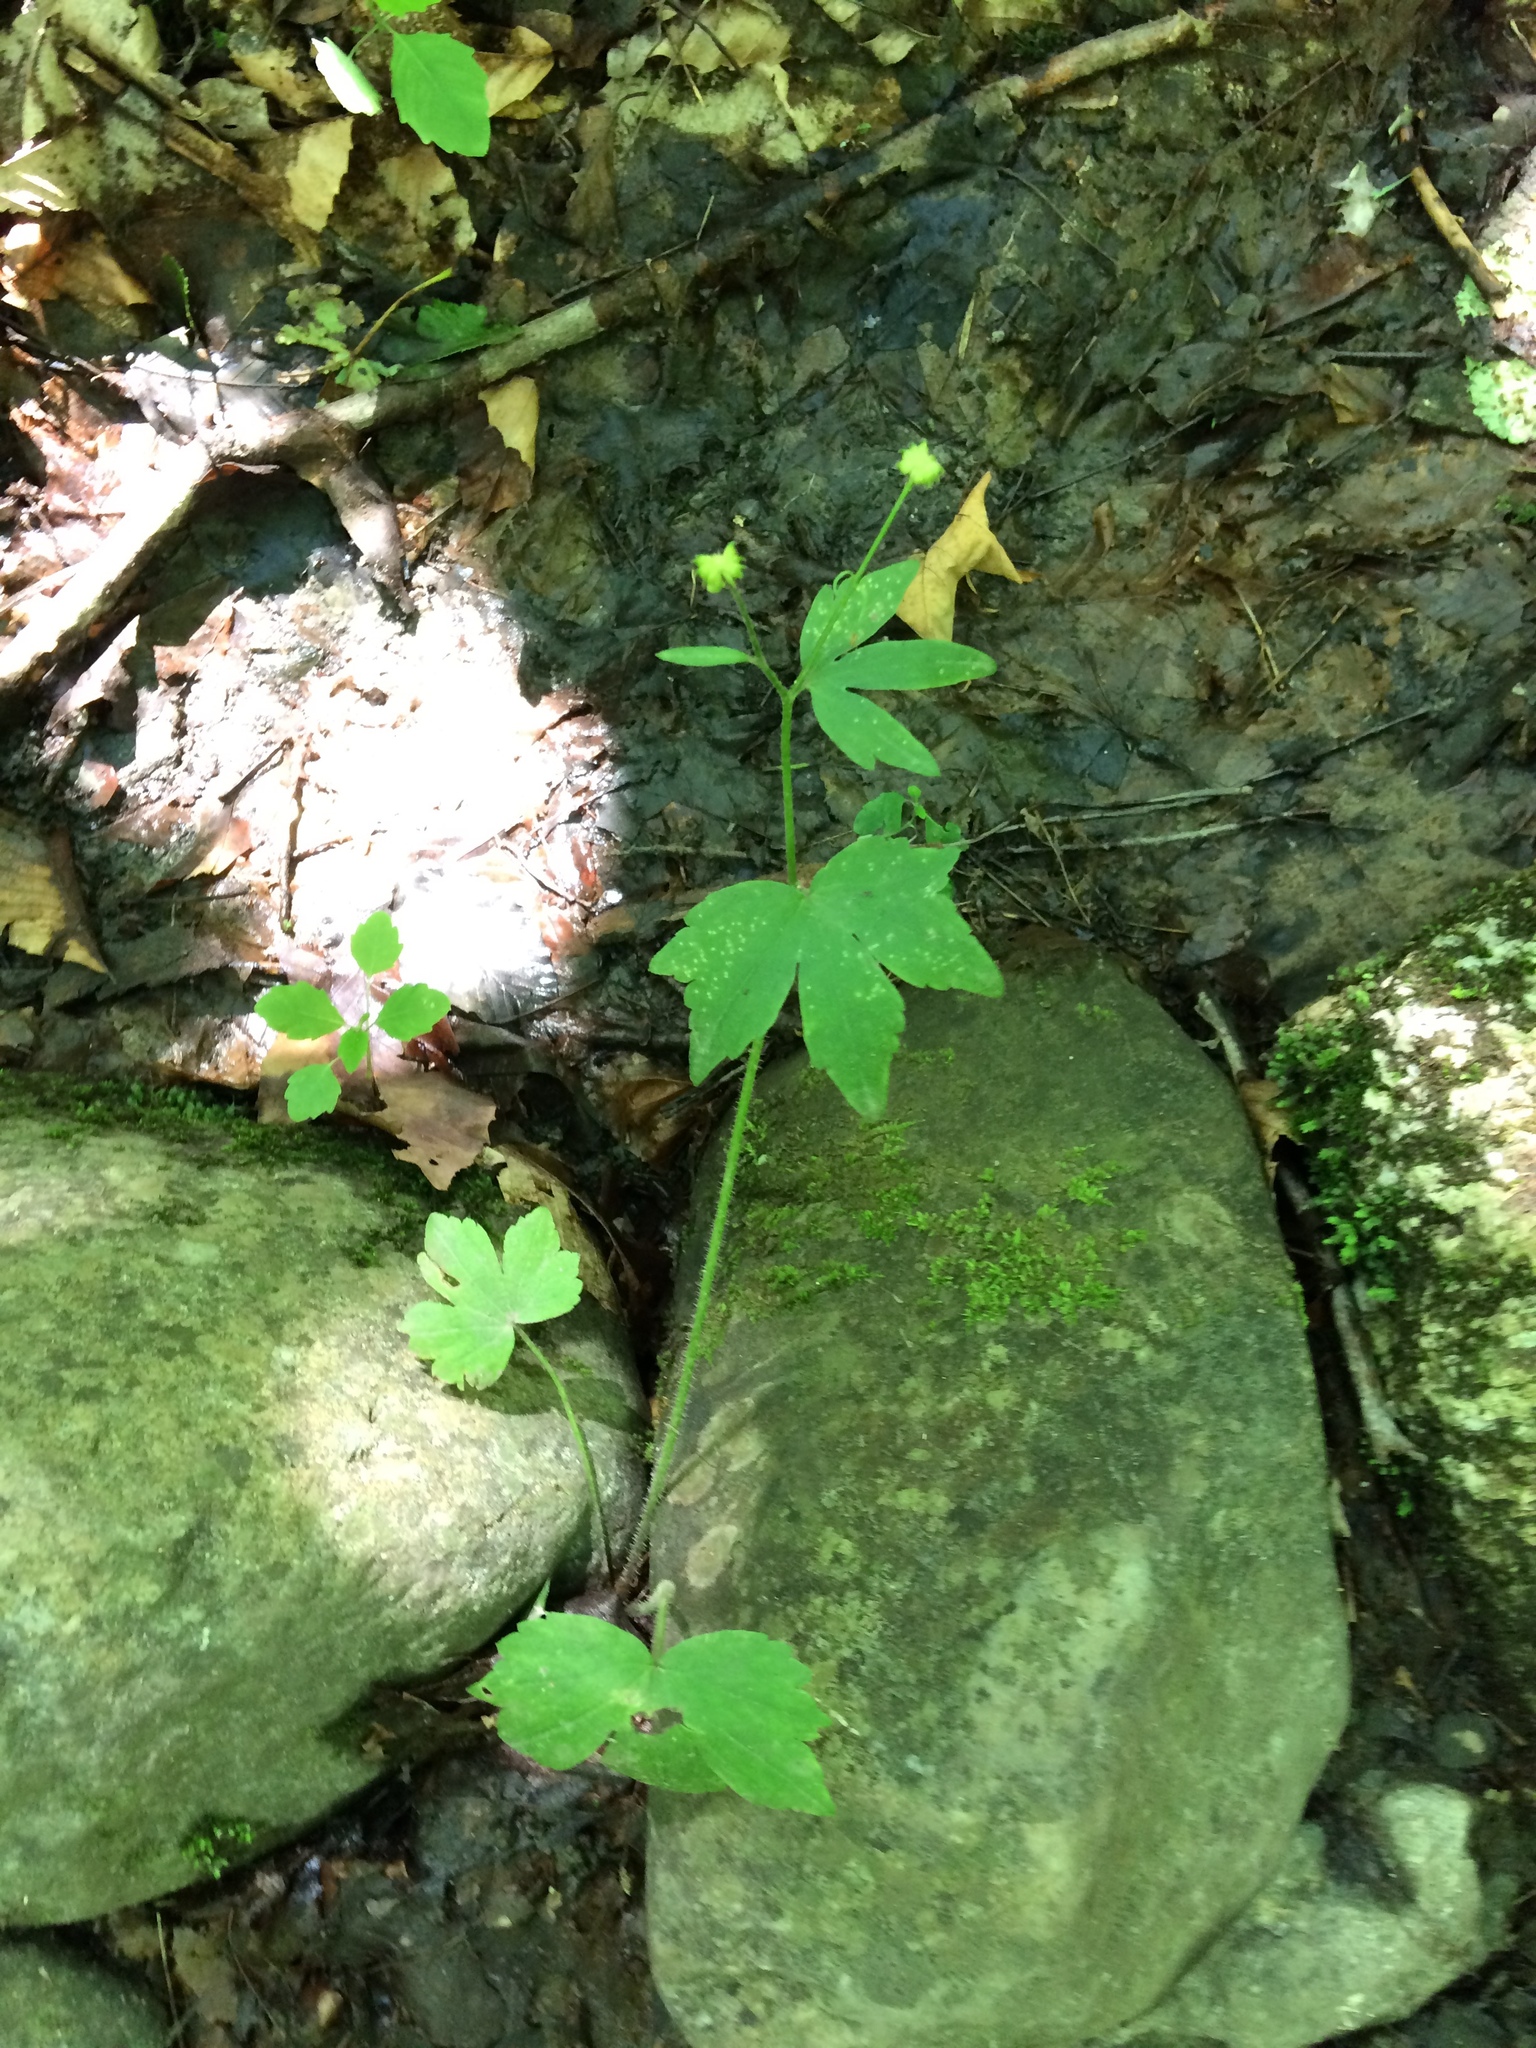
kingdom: Plantae
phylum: Tracheophyta
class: Magnoliopsida
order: Ranunculales
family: Ranunculaceae
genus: Ranunculus
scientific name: Ranunculus recurvatus
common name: Blisterwort
